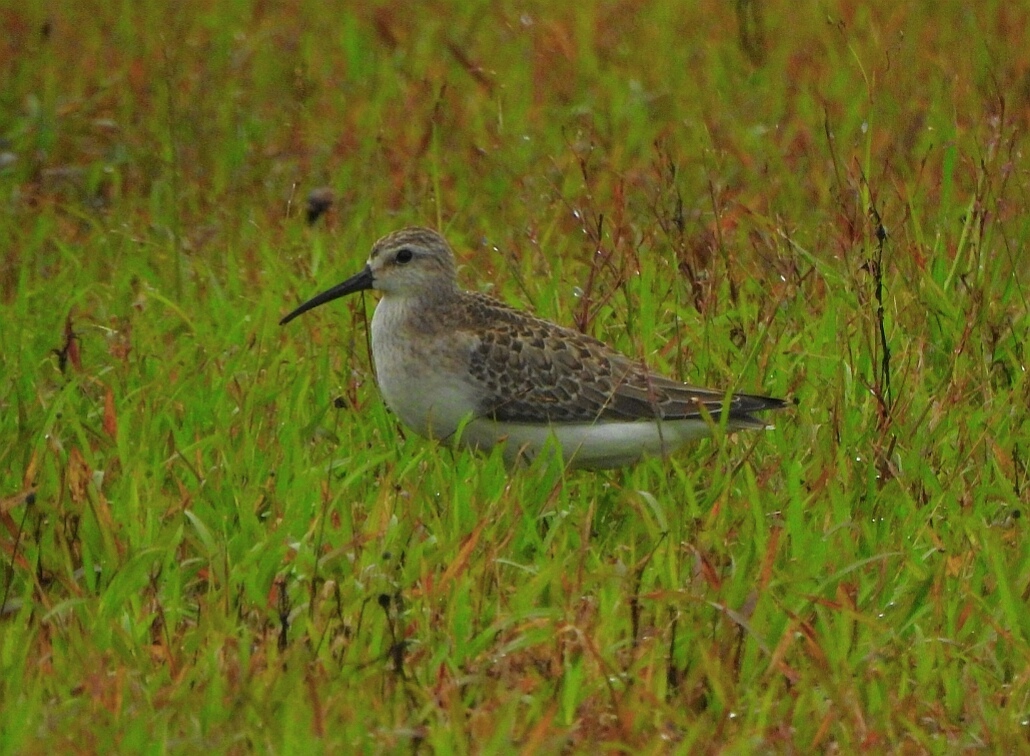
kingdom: Animalia
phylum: Chordata
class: Aves
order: Charadriiformes
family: Scolopacidae
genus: Calidris
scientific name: Calidris ferruginea
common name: Curlew sandpiper
